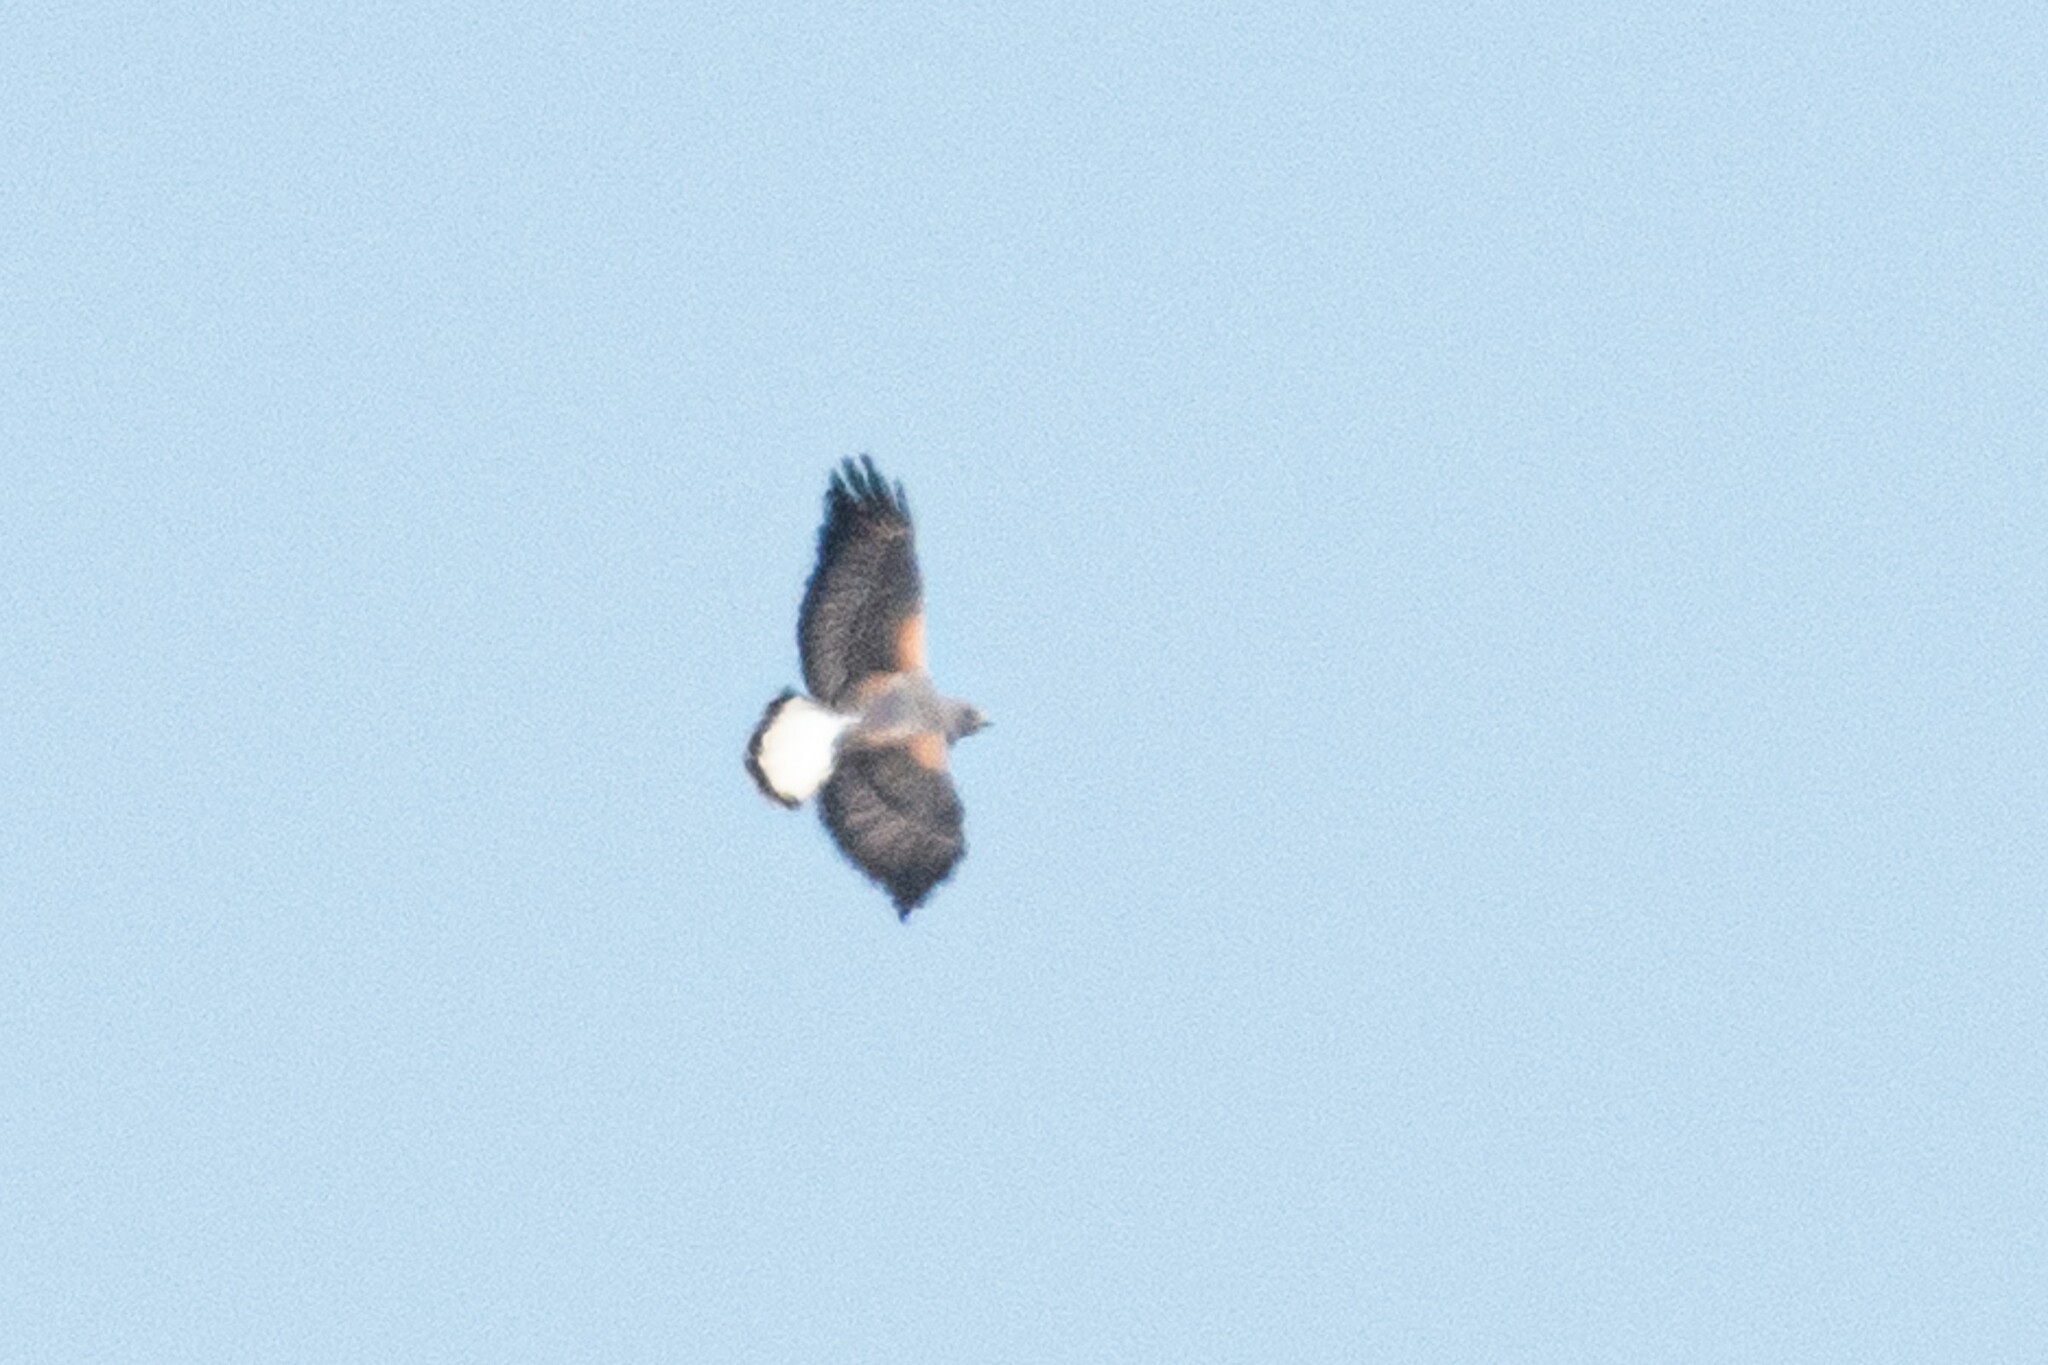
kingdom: Animalia
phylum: Chordata
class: Aves
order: Accipitriformes
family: Accipitridae
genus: Buteo
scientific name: Buteo albicaudatus
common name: White-tailed hawk
